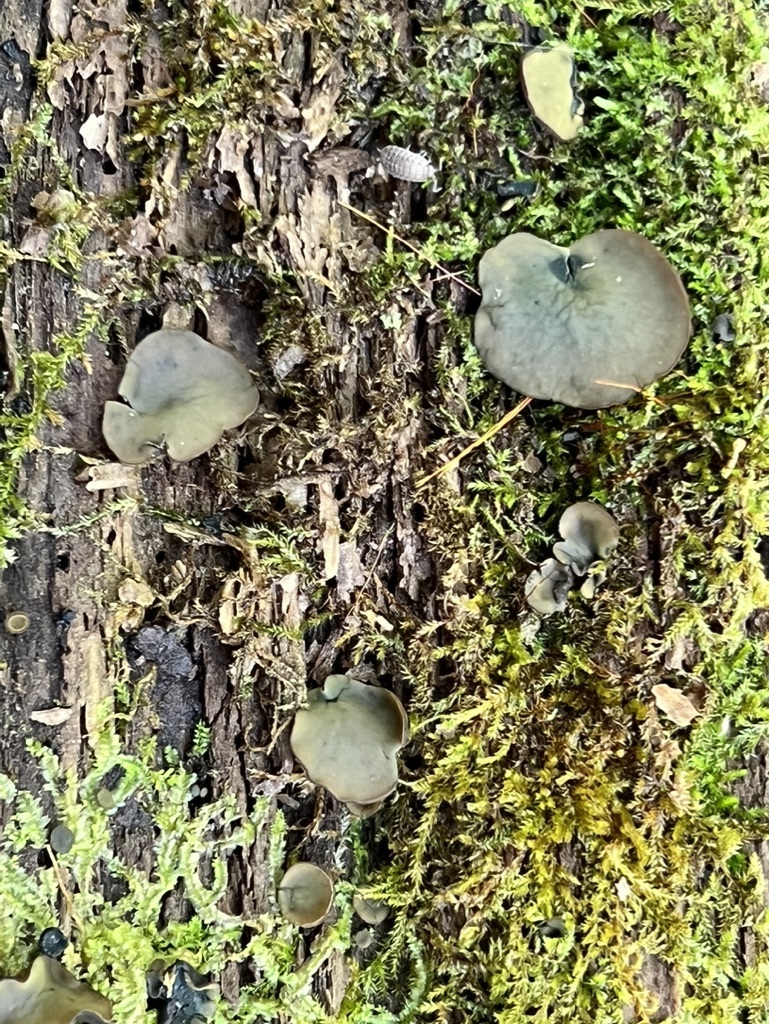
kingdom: Fungi
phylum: Ascomycota
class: Leotiomycetes
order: Helotiales
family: Cenangiaceae
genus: Chlorencoelia
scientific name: Chlorencoelia versiformis
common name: Flea's ear
